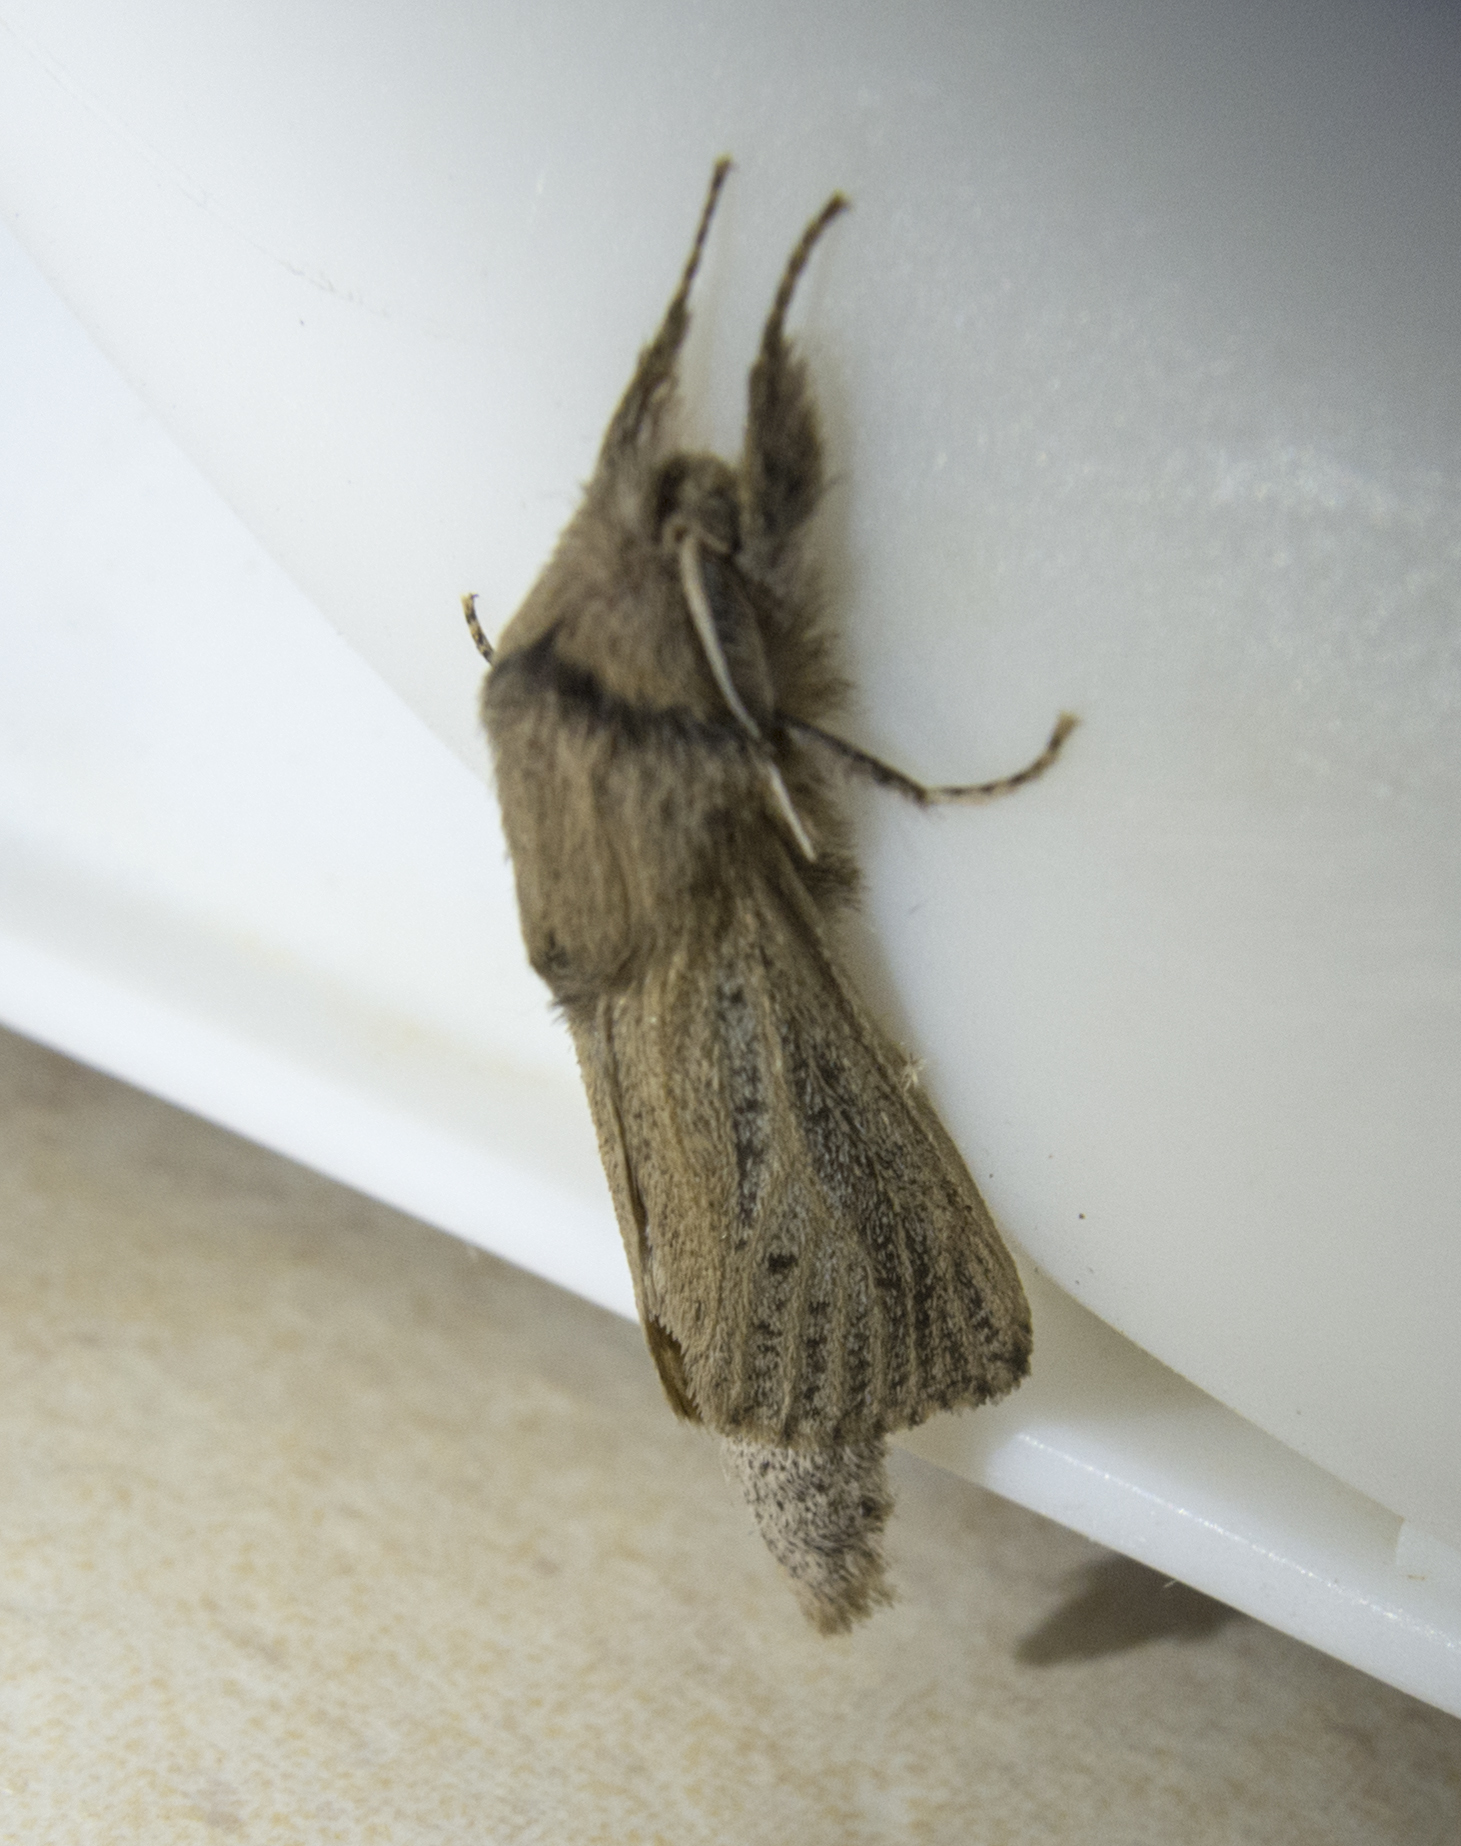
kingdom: Animalia
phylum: Arthropoda
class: Insecta
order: Lepidoptera
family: Cossidae
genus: Phragmataecia
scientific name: Phragmataecia castaneae
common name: Reed leopard
